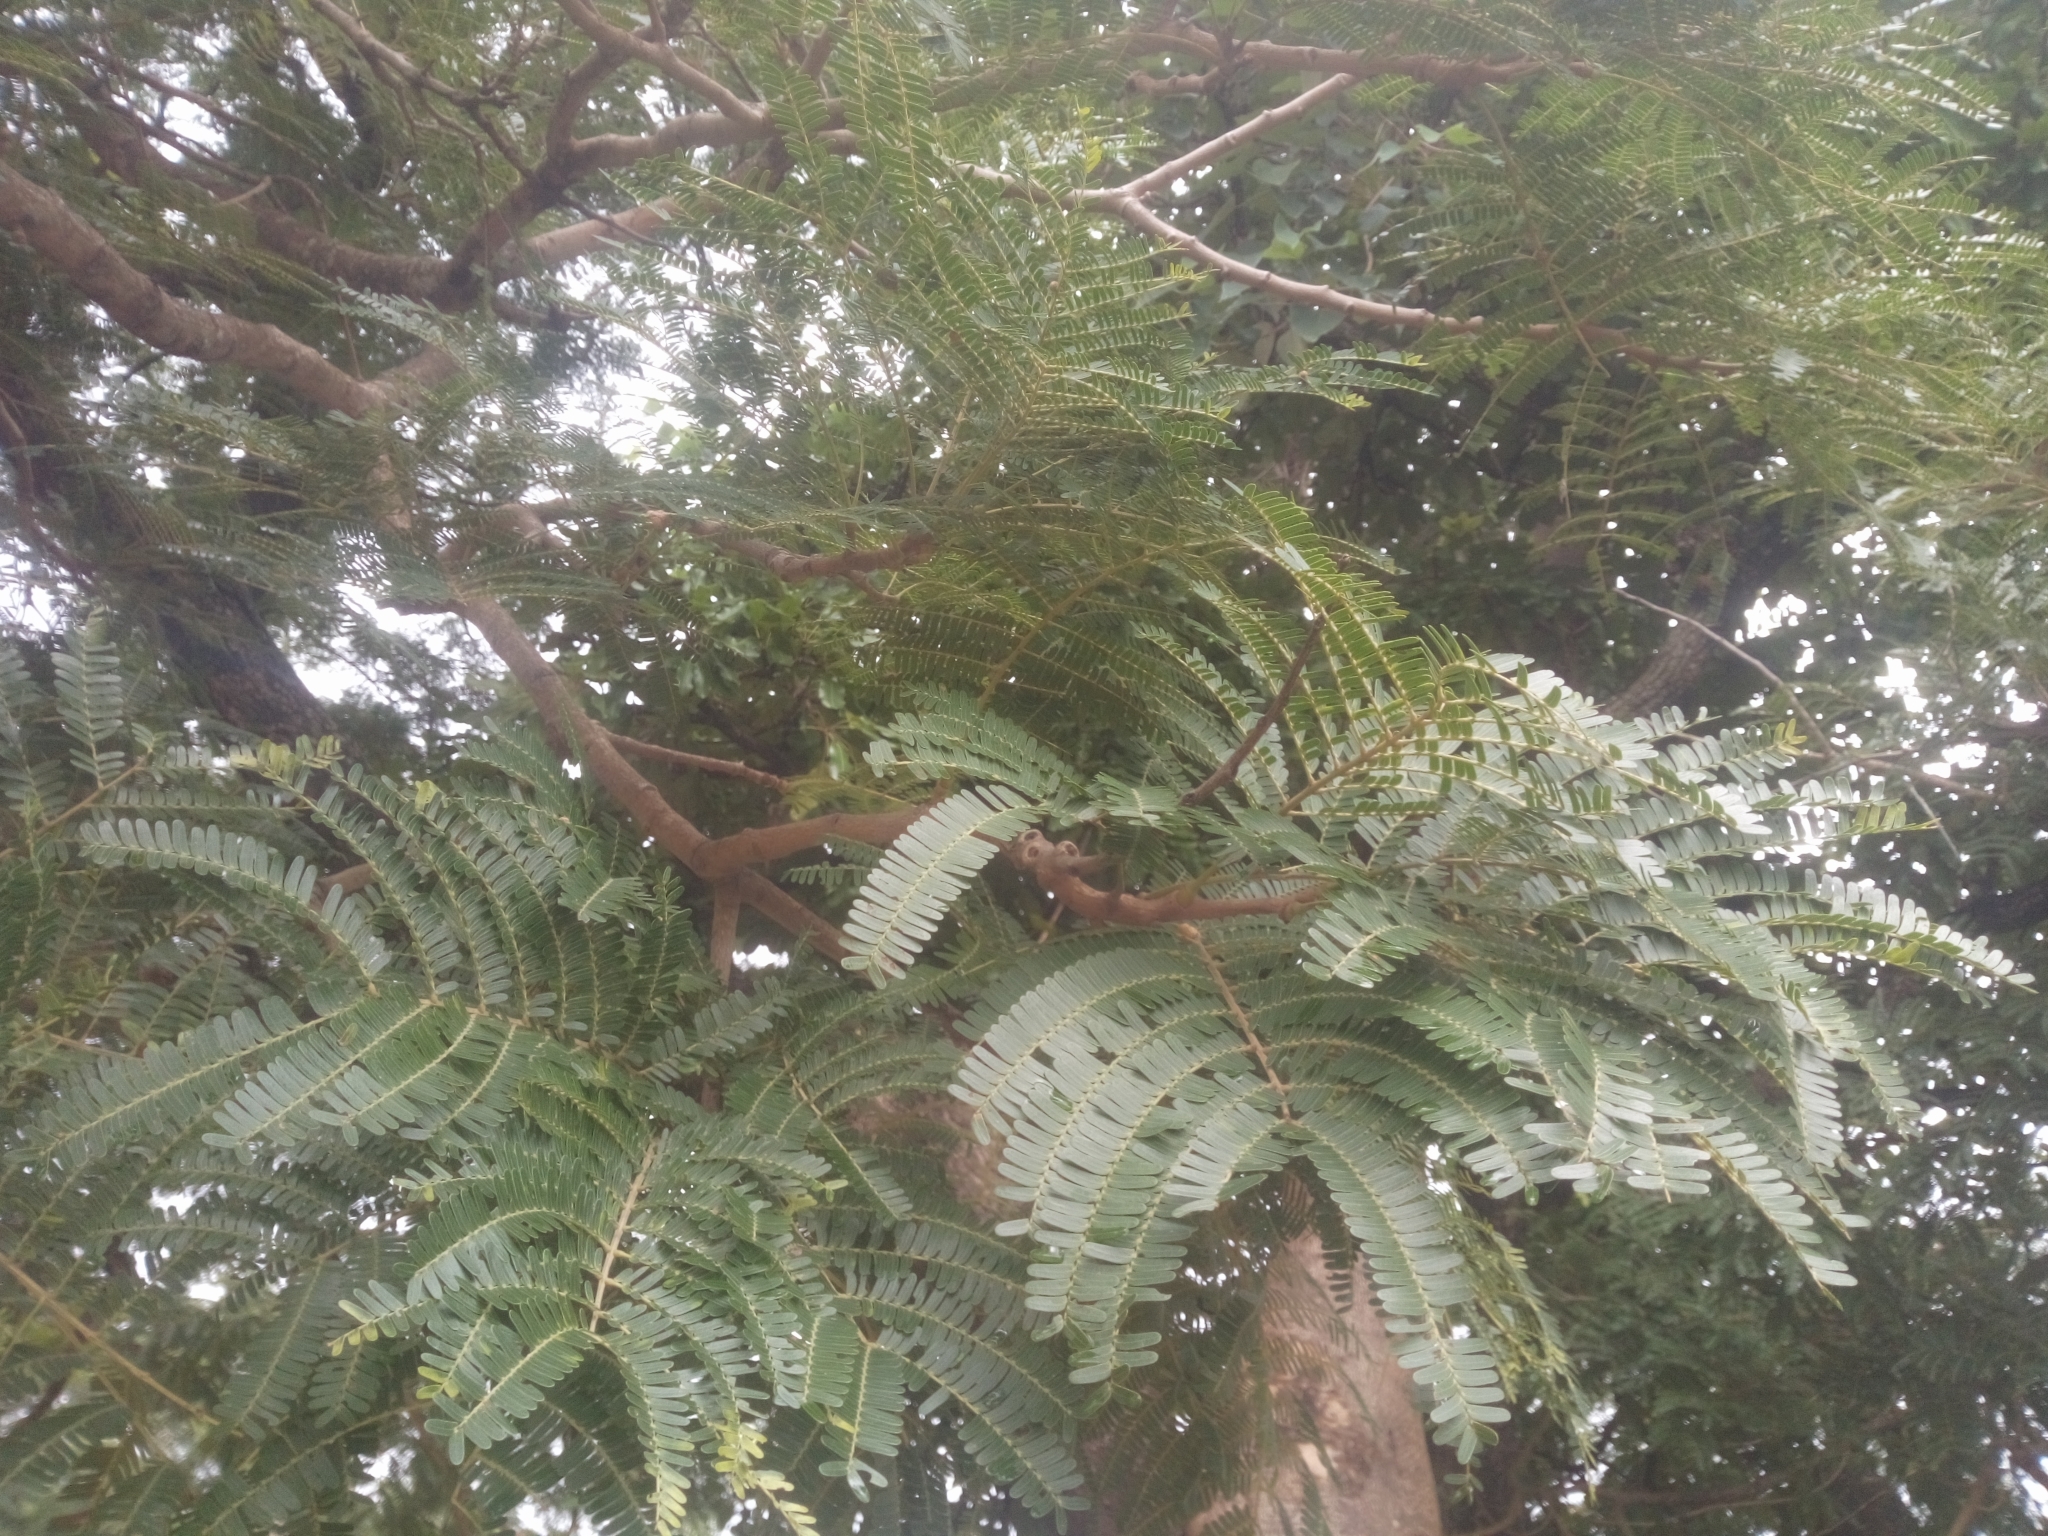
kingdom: Plantae
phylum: Tracheophyta
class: Magnoliopsida
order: Fabales
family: Fabaceae
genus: Parkia
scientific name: Parkia biglobosa
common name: African locust-bean
